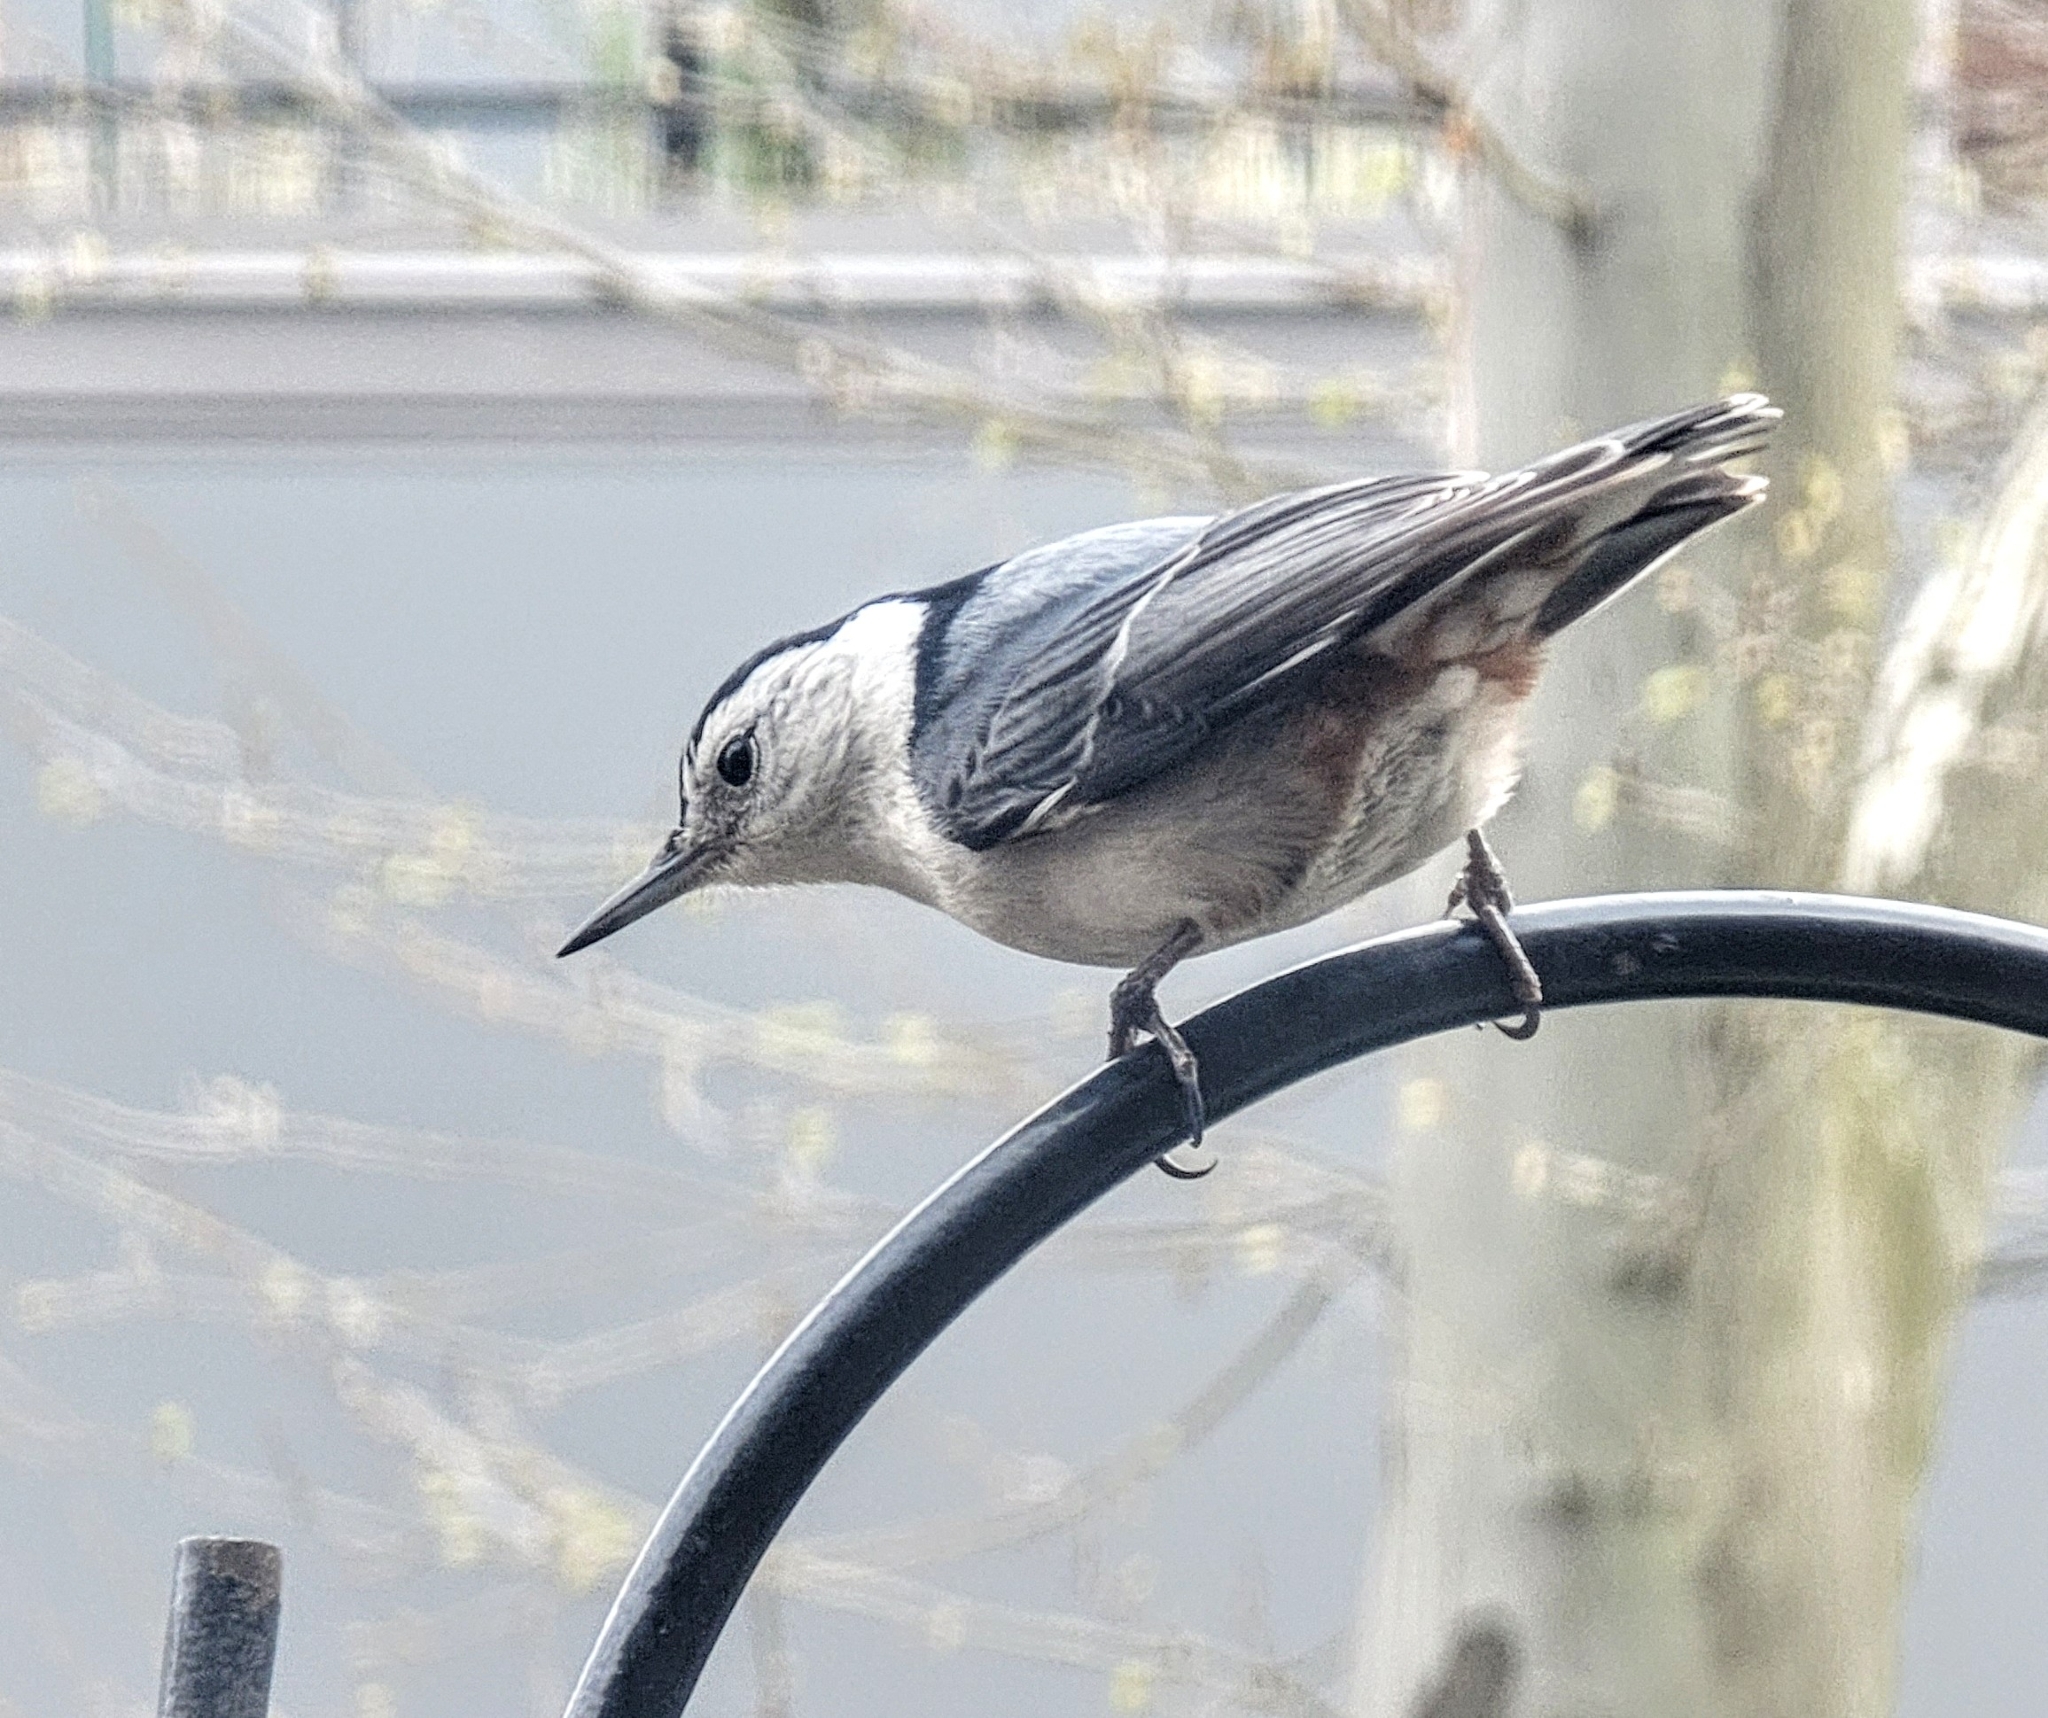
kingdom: Animalia
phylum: Chordata
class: Aves
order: Passeriformes
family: Sittidae
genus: Sitta
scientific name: Sitta carolinensis
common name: White-breasted nuthatch
